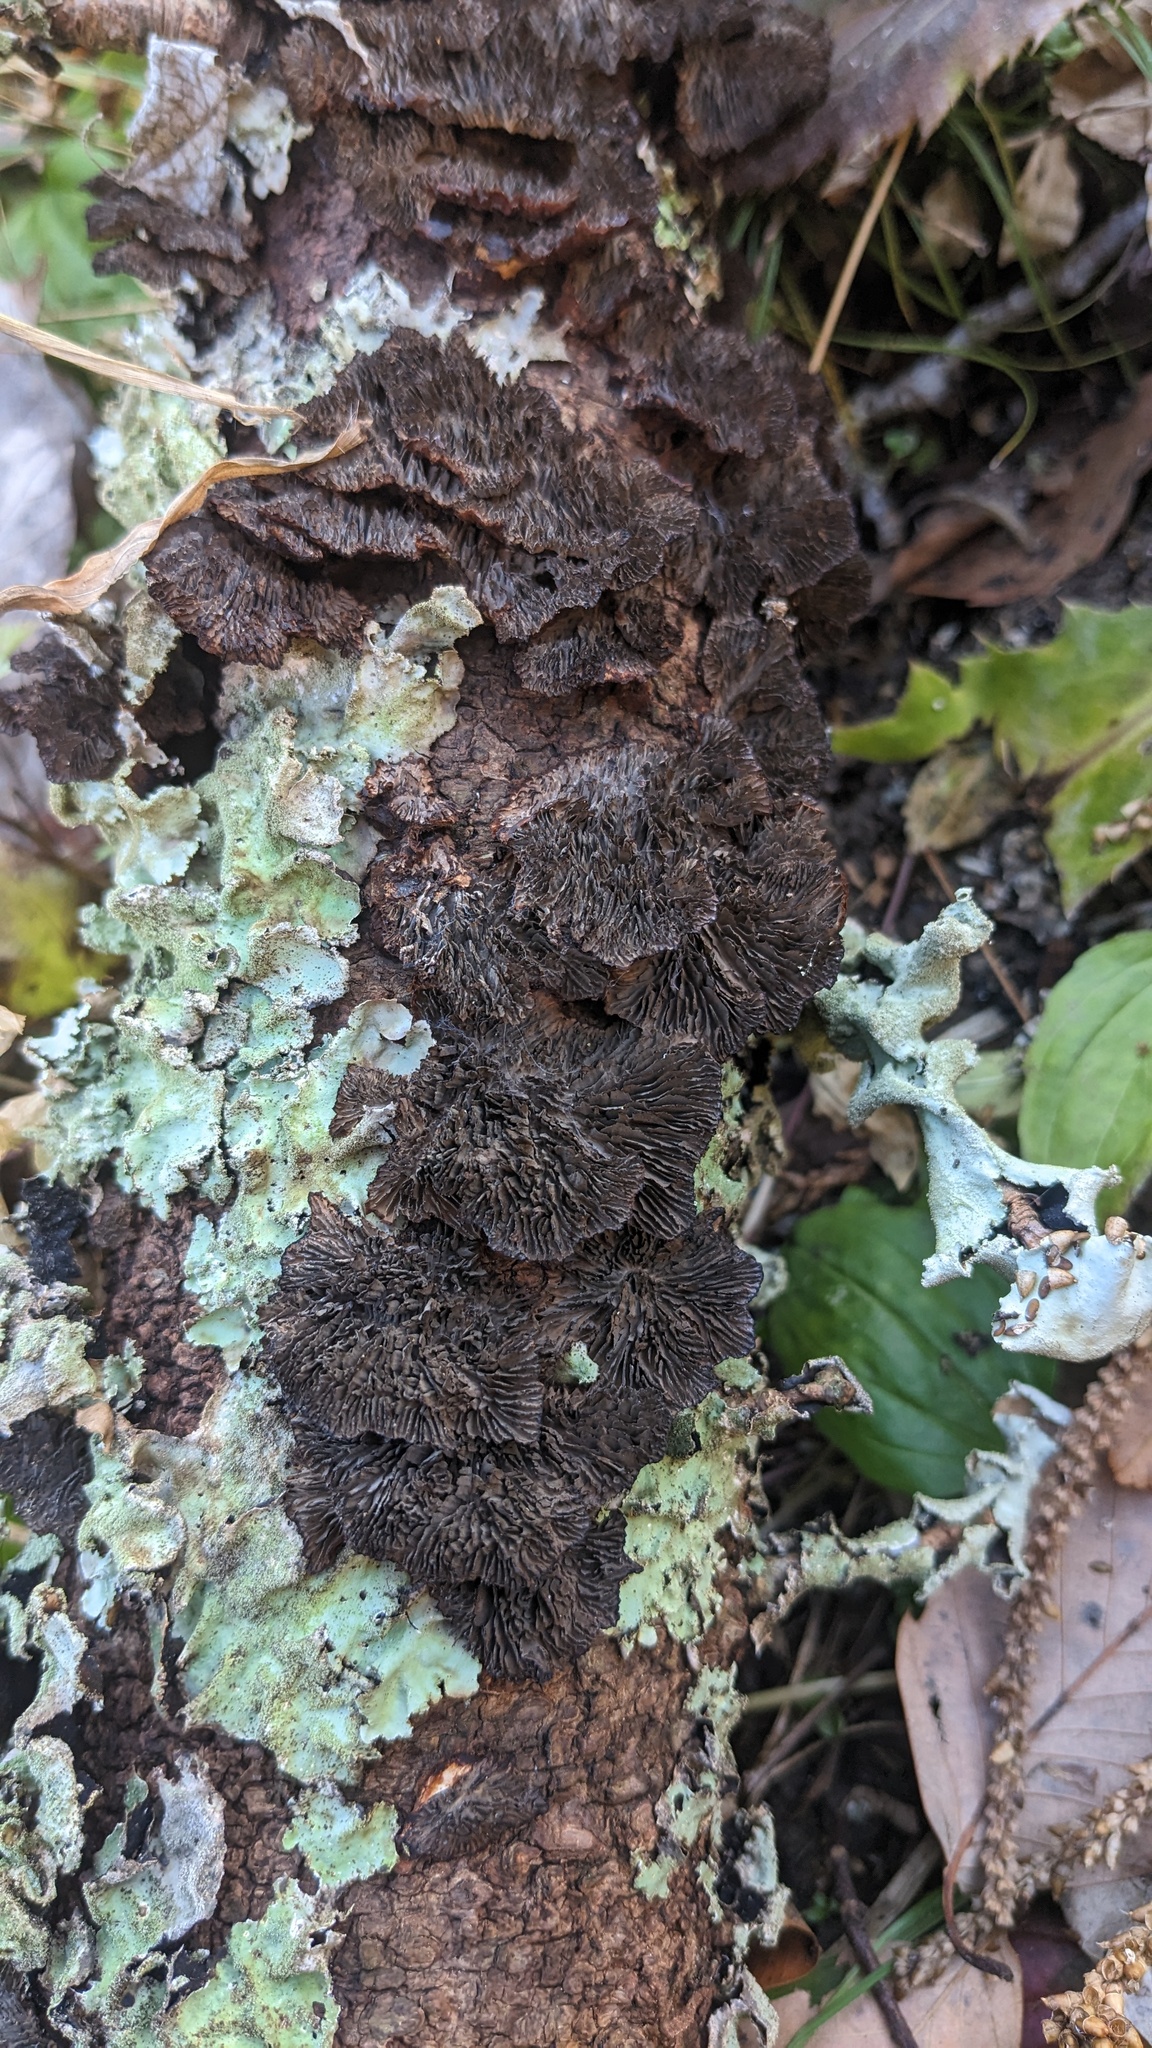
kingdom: Fungi
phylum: Basidiomycota
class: Agaricomycetes
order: Polyporales
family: Polyporaceae
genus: Daedaleopsis
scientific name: Daedaleopsis tricolor
